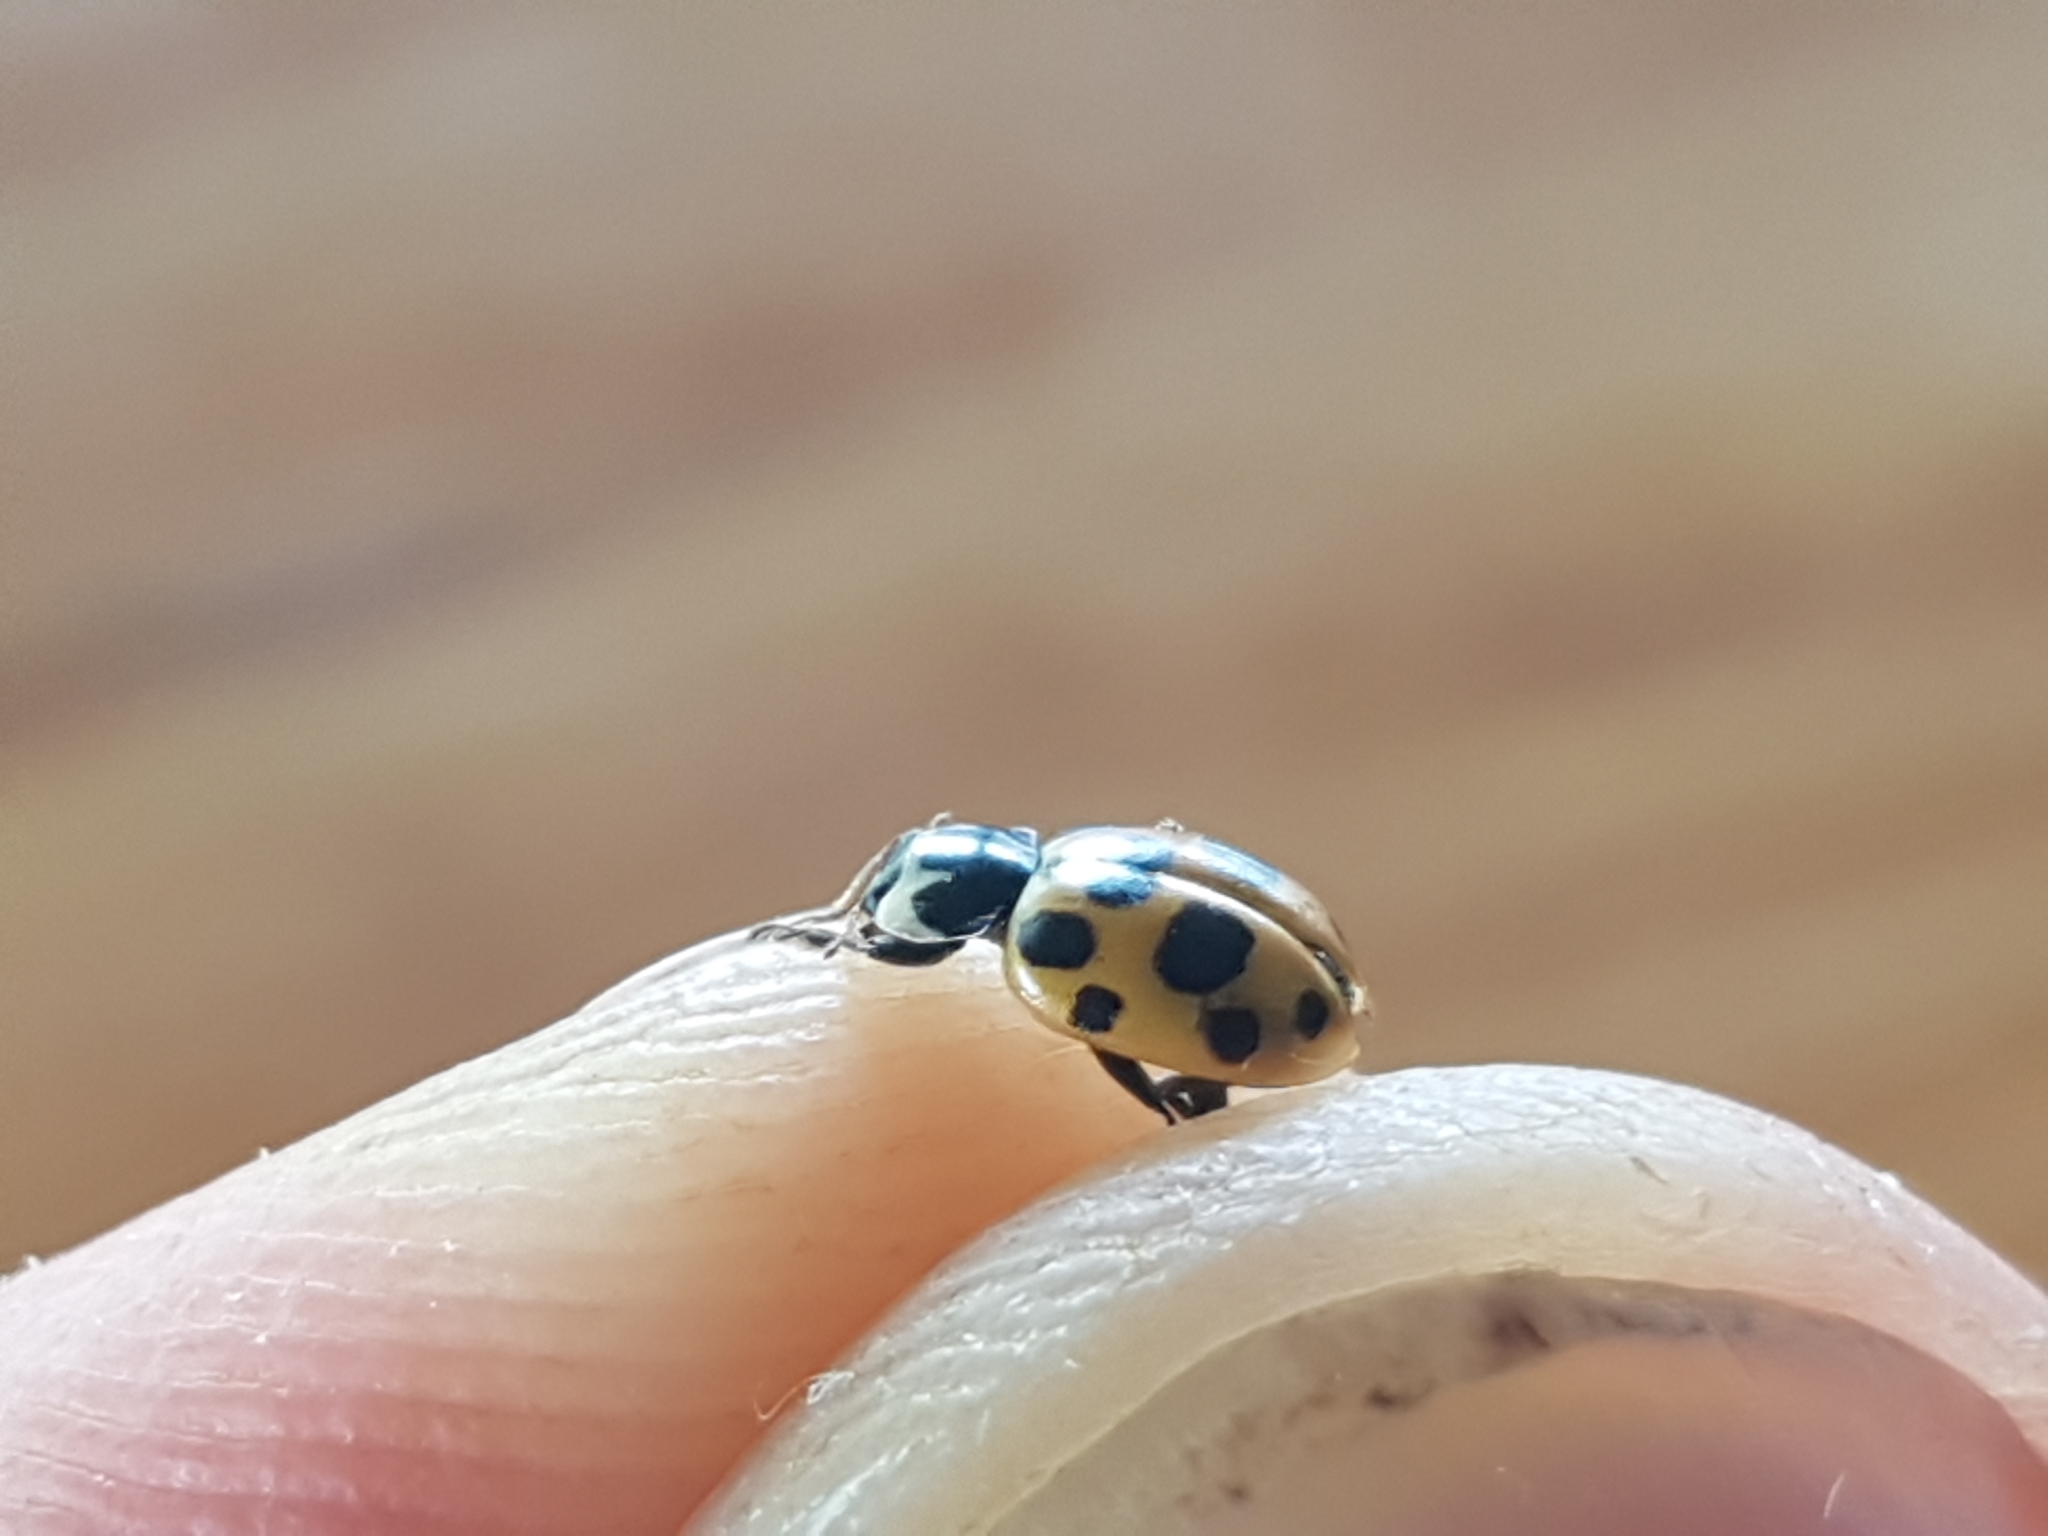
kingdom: Animalia
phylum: Arthropoda
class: Insecta
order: Coleoptera
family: Coccinellidae
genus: Ceratomegilla
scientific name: Ceratomegilla notata
